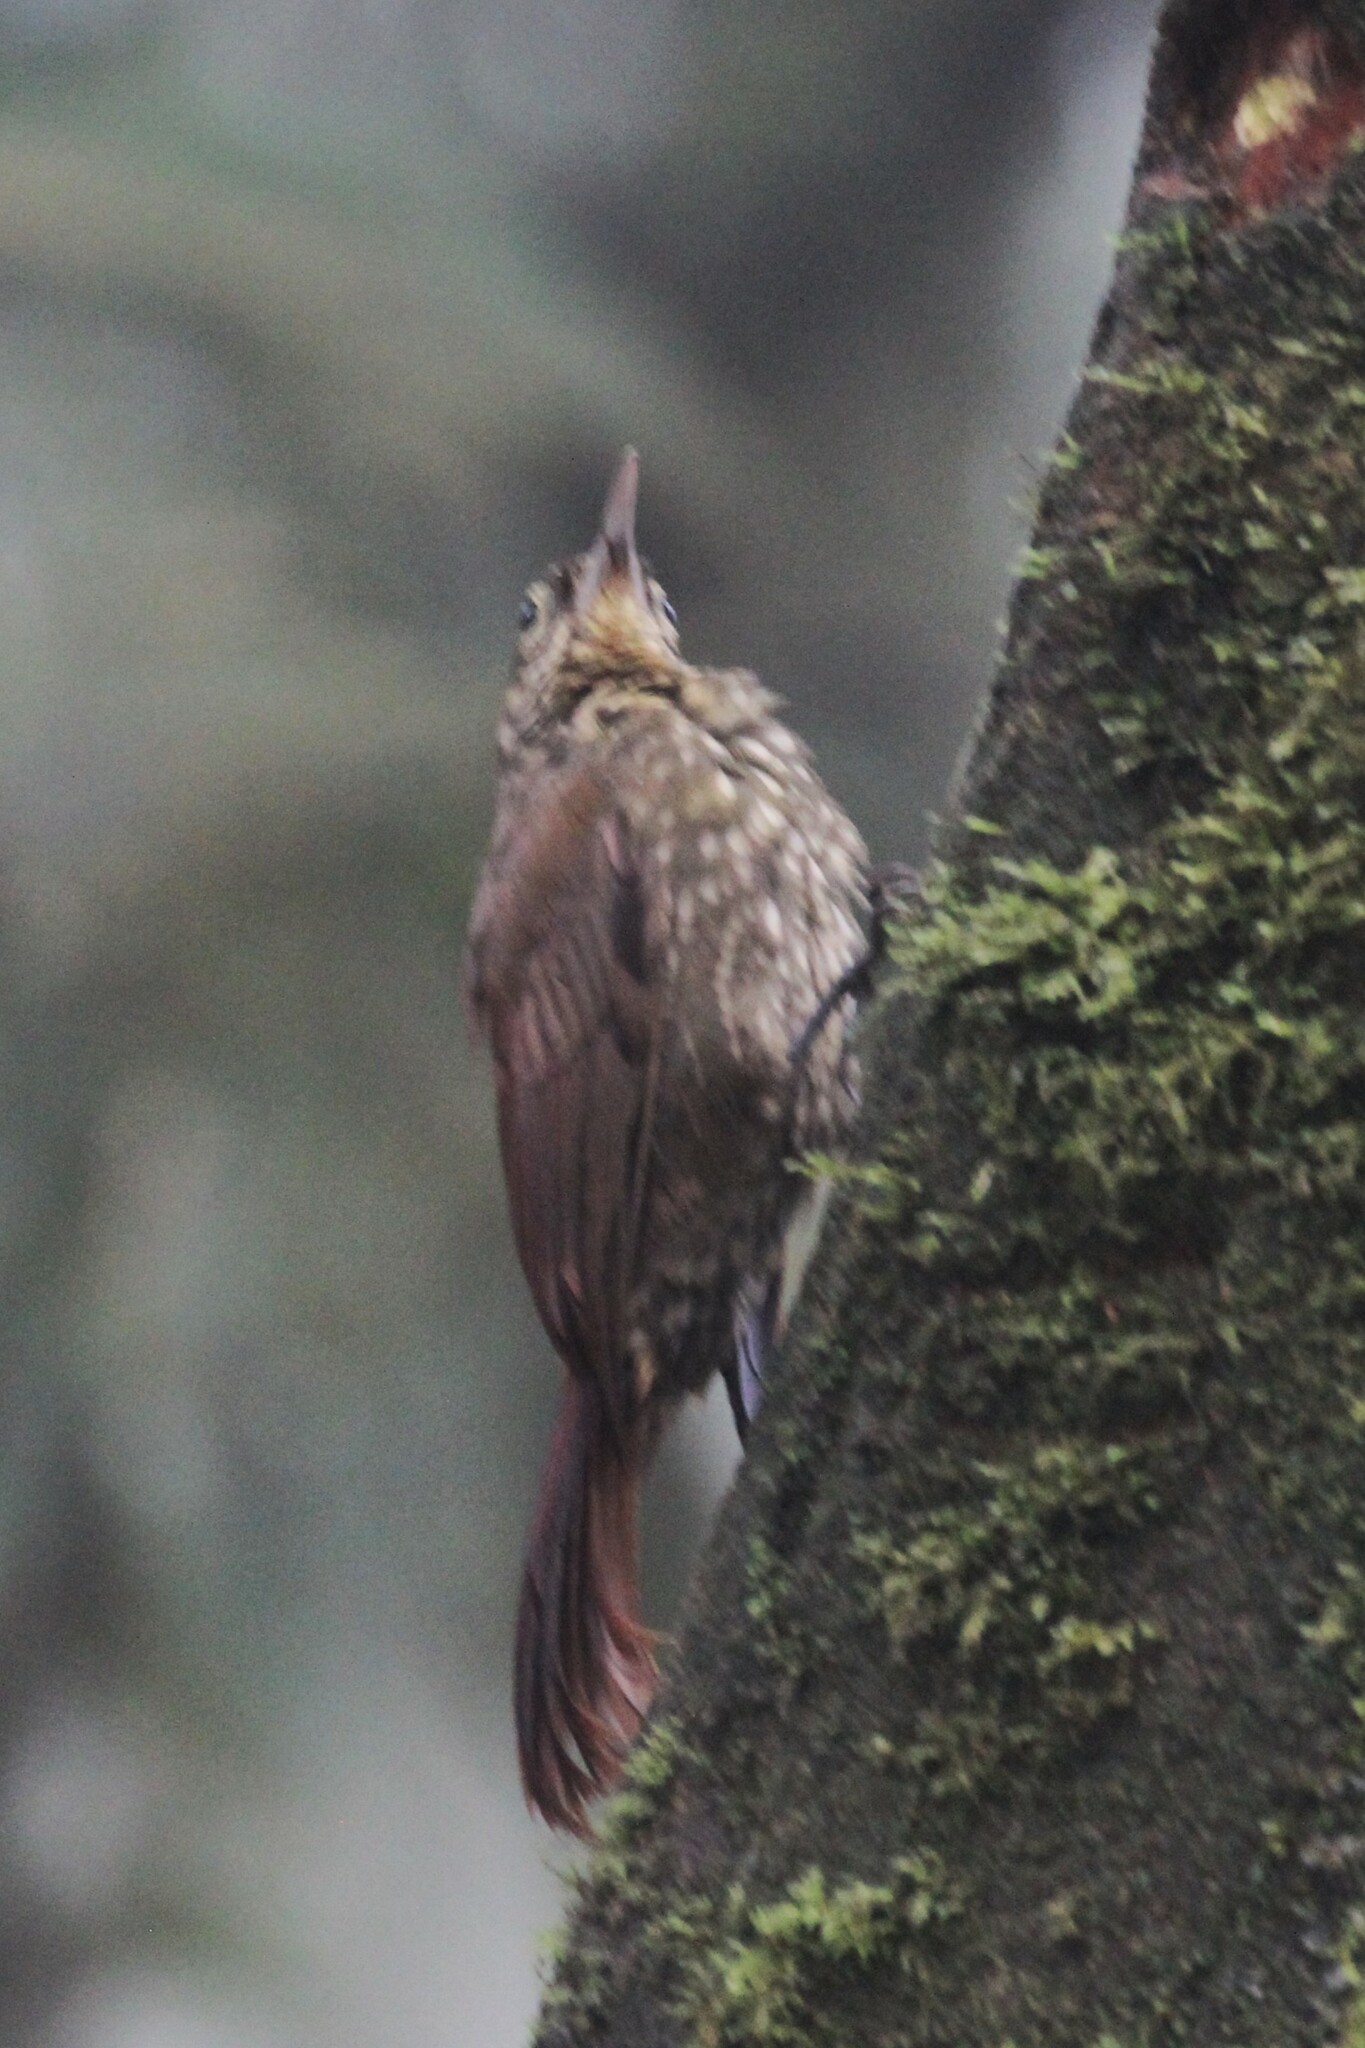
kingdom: Animalia
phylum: Chordata
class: Aves
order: Passeriformes
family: Furnariidae
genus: Xiphorhynchus
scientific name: Xiphorhynchus erythropygius
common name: Spotted woodcreeper
